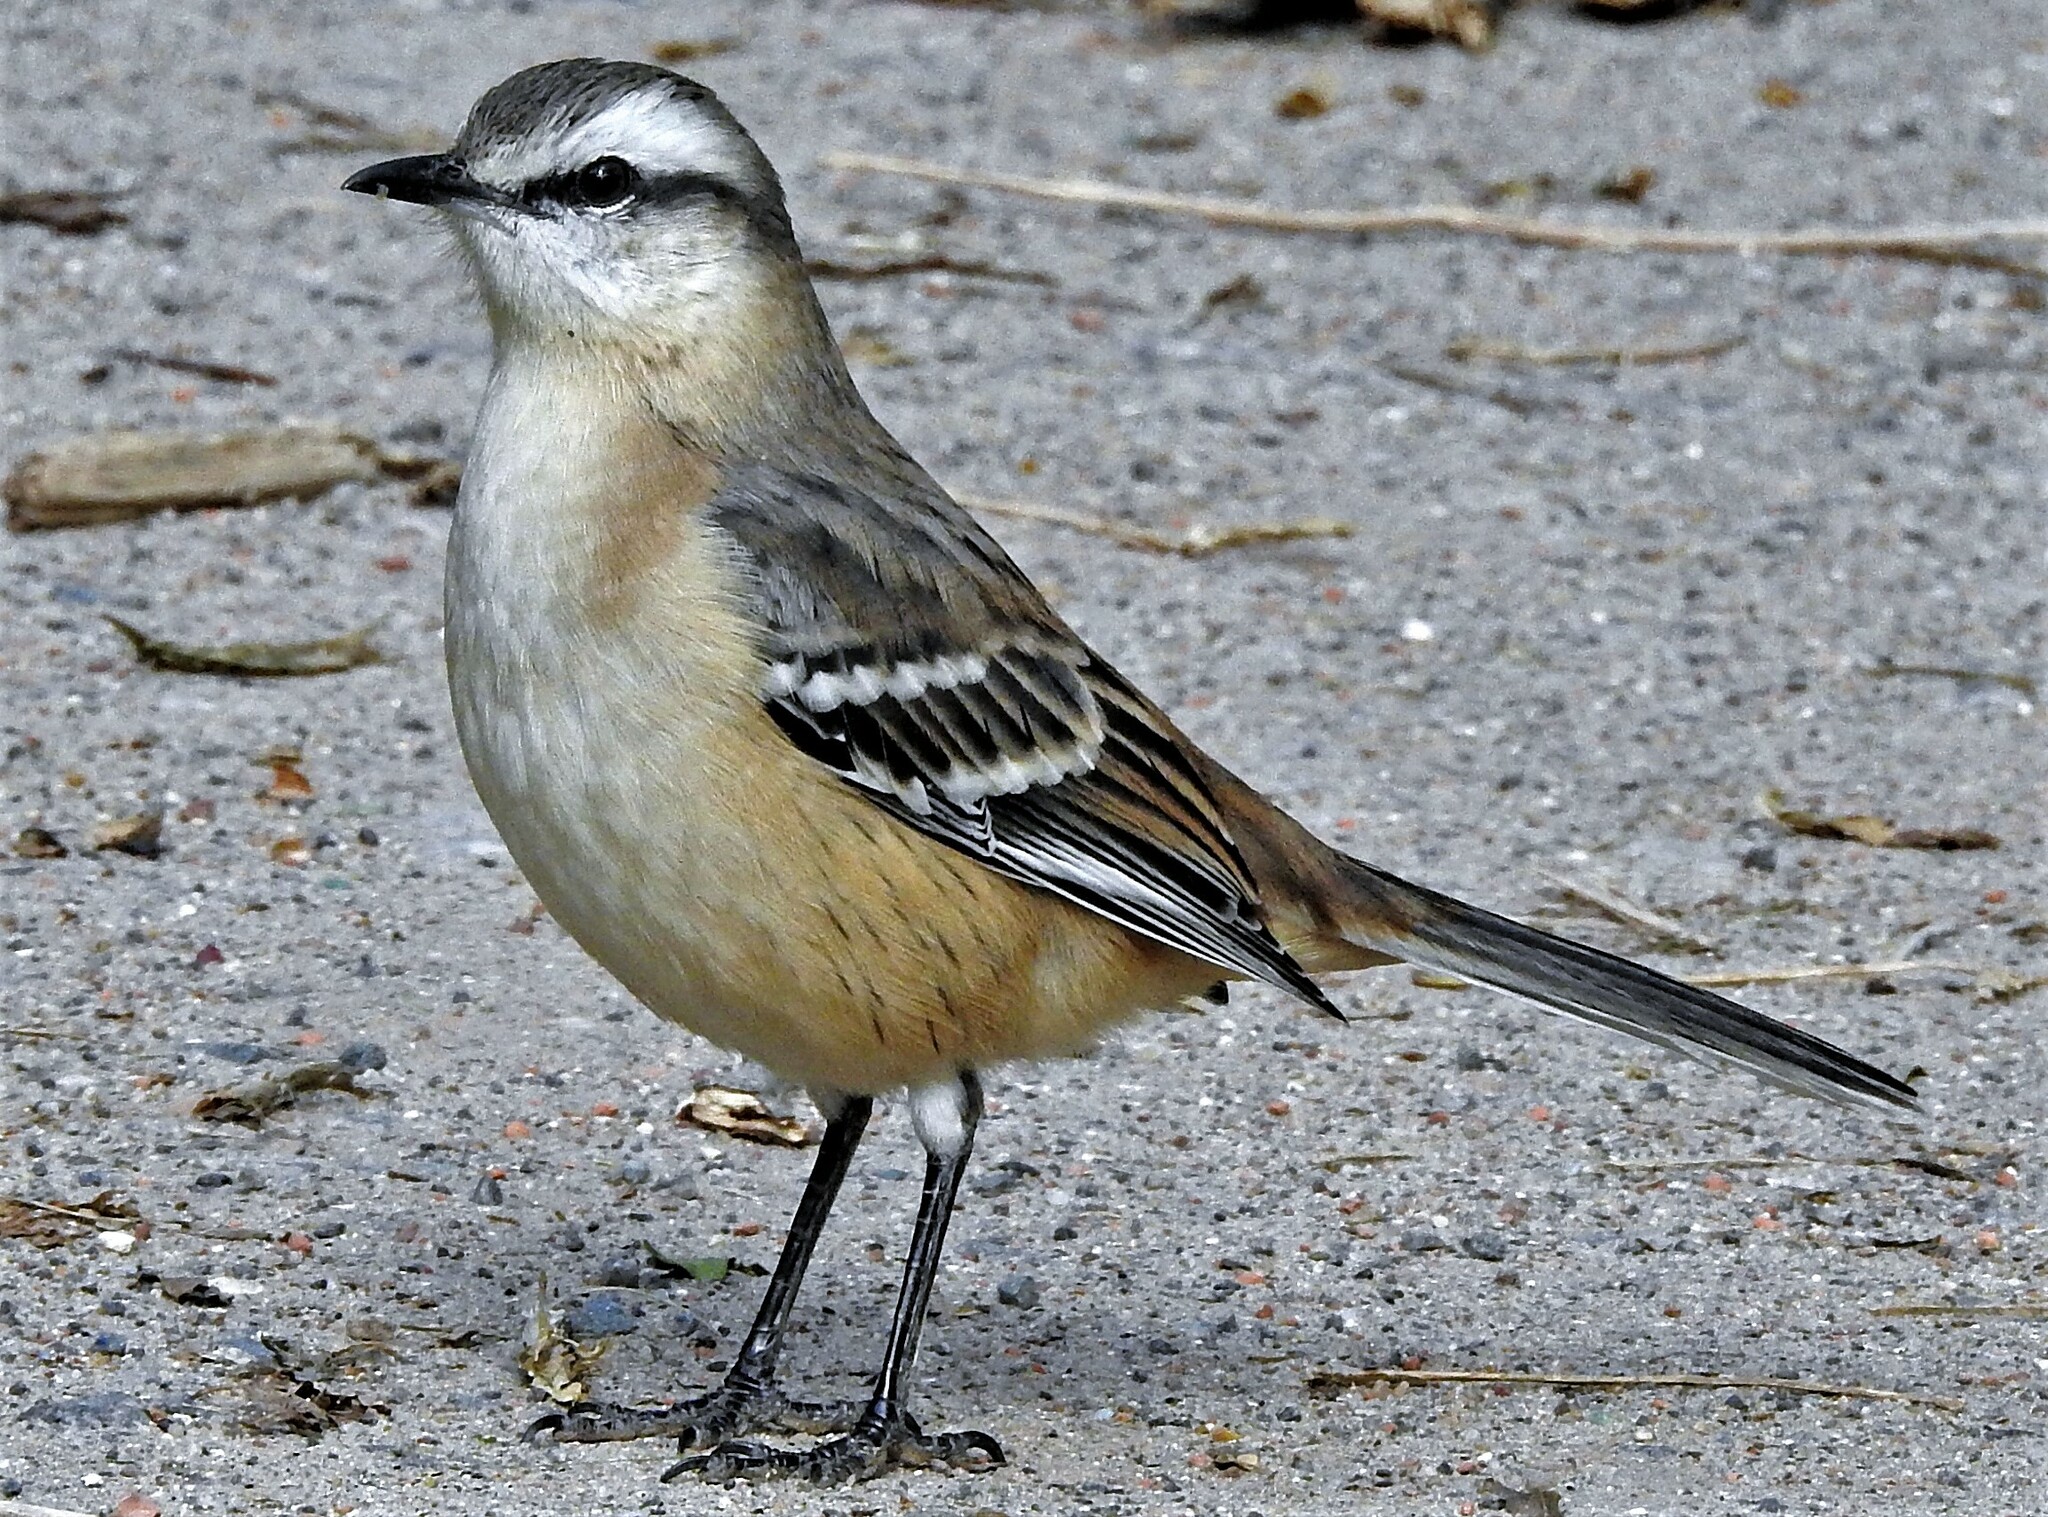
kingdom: Animalia
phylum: Chordata
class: Aves
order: Passeriformes
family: Mimidae
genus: Mimus
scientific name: Mimus saturninus
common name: Chalk-browed mockingbird
